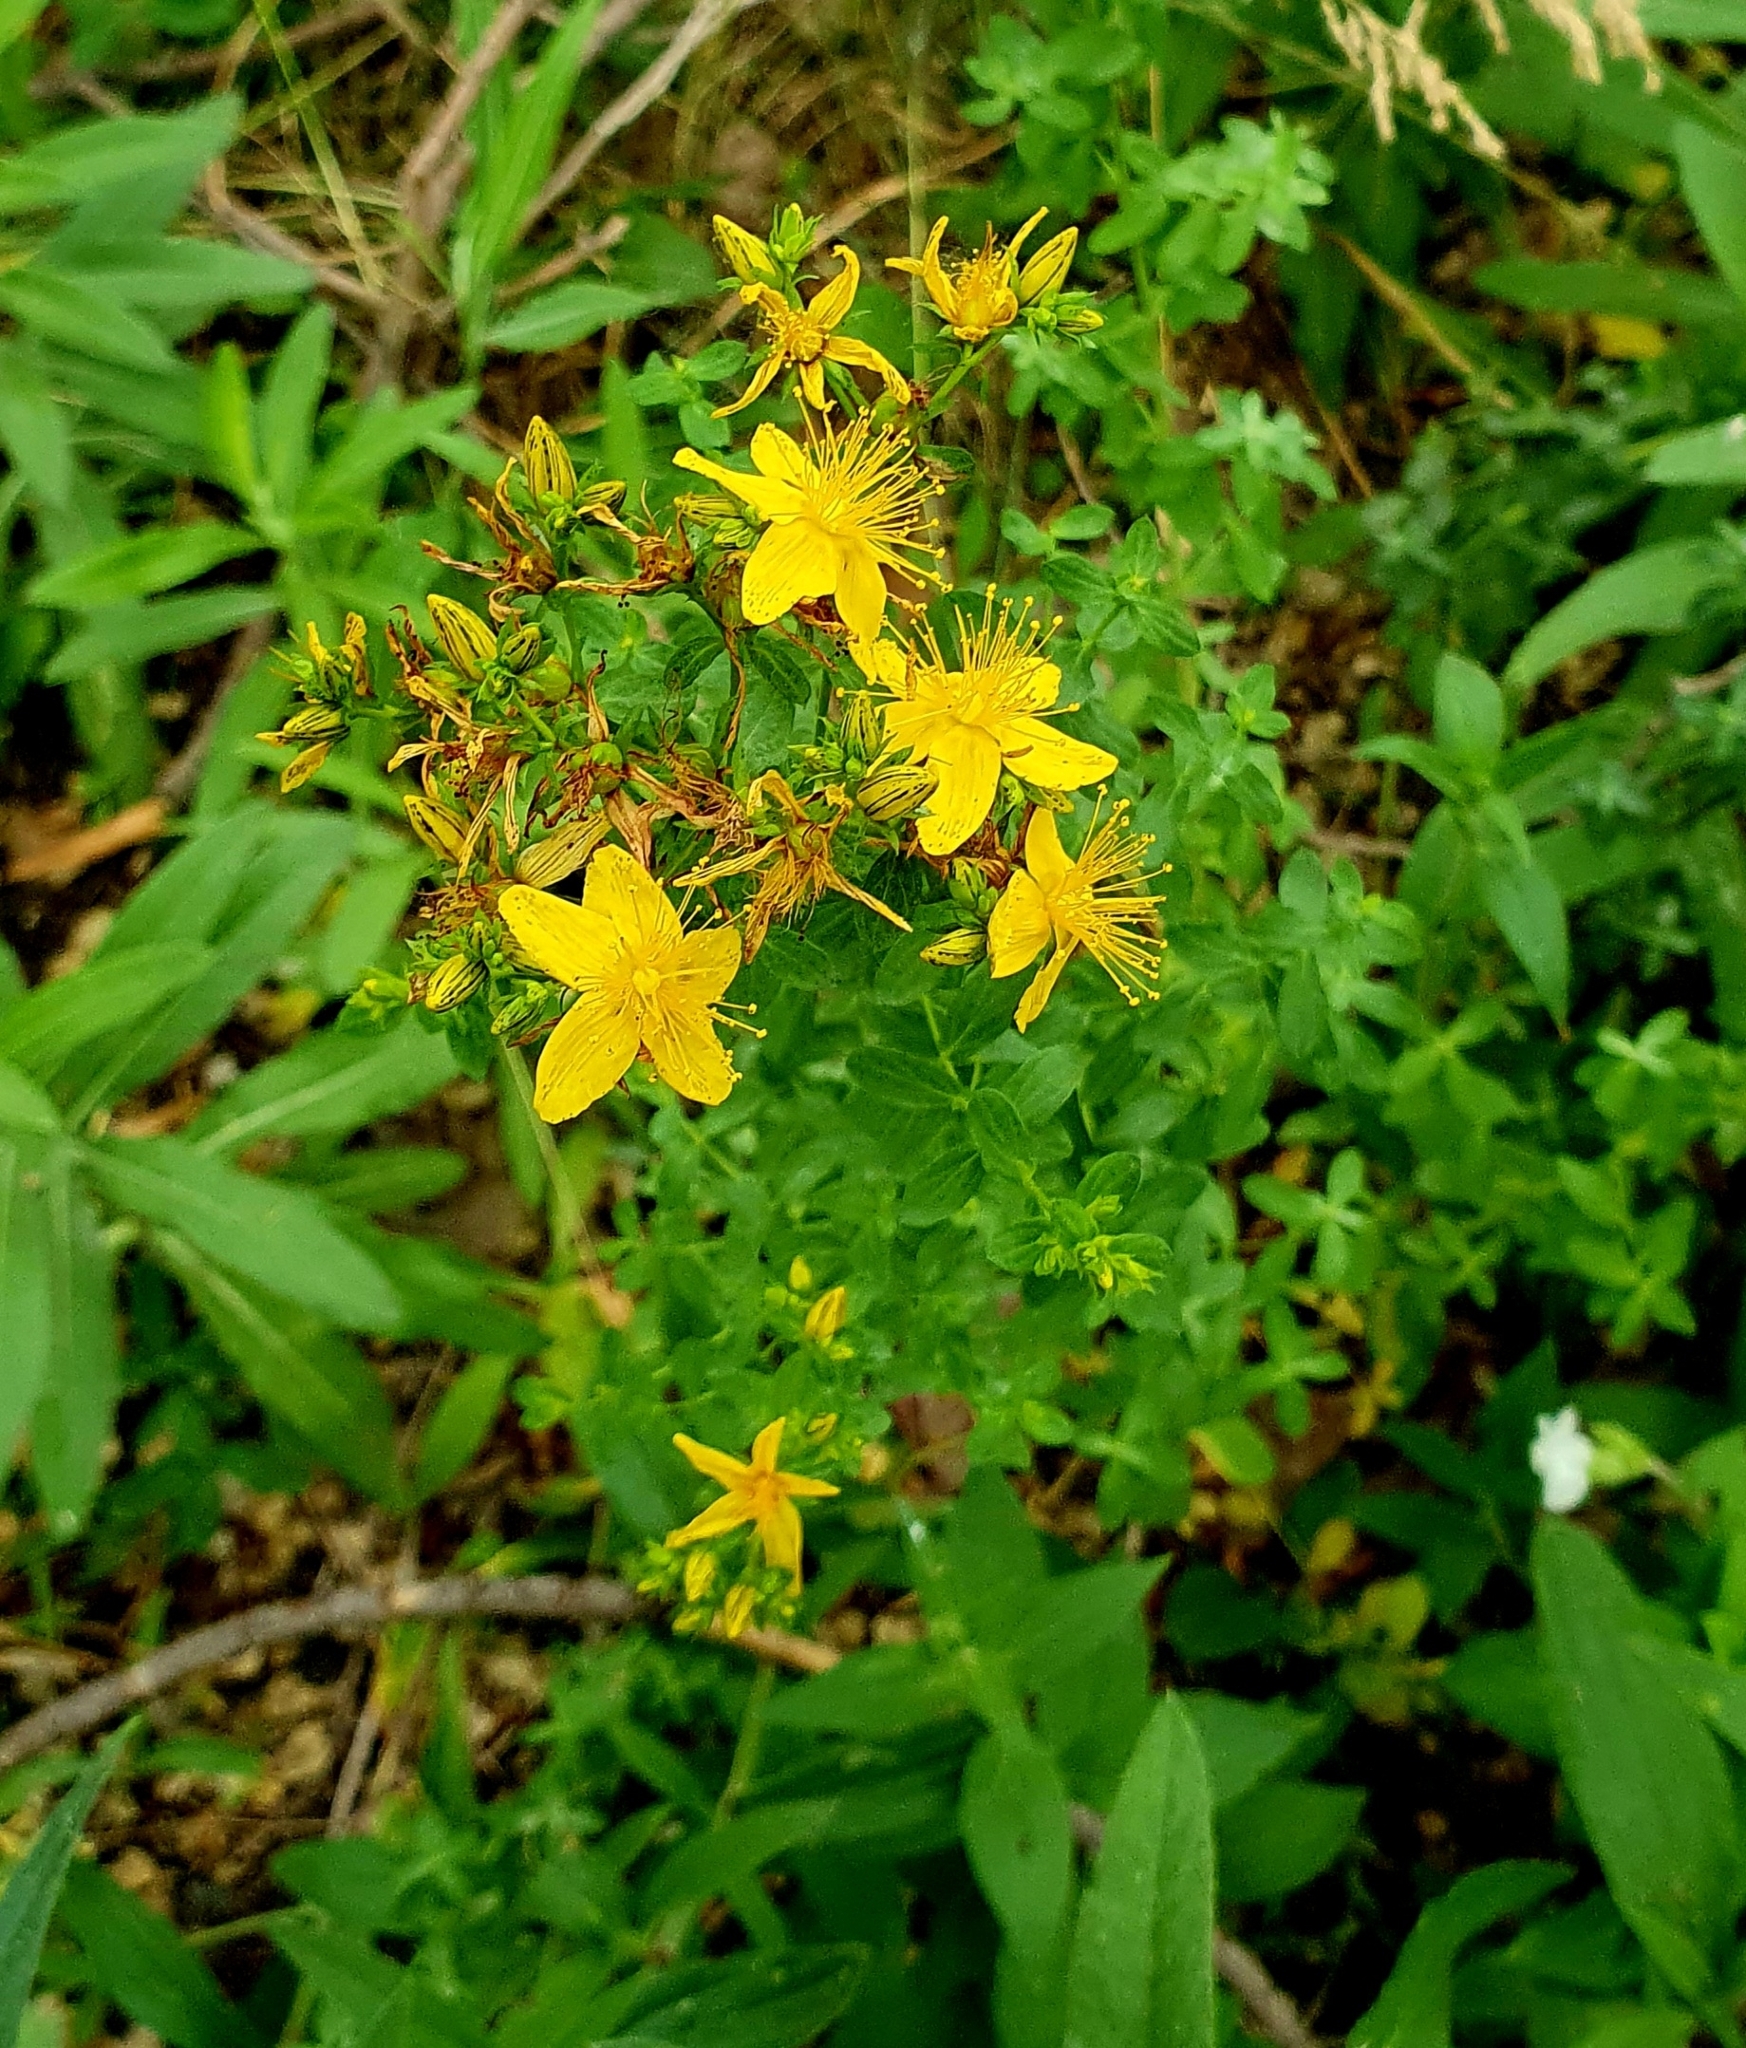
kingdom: Plantae
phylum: Tracheophyta
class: Magnoliopsida
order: Malpighiales
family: Hypericaceae
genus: Hypericum
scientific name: Hypericum perforatum
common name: Common st. johnswort
